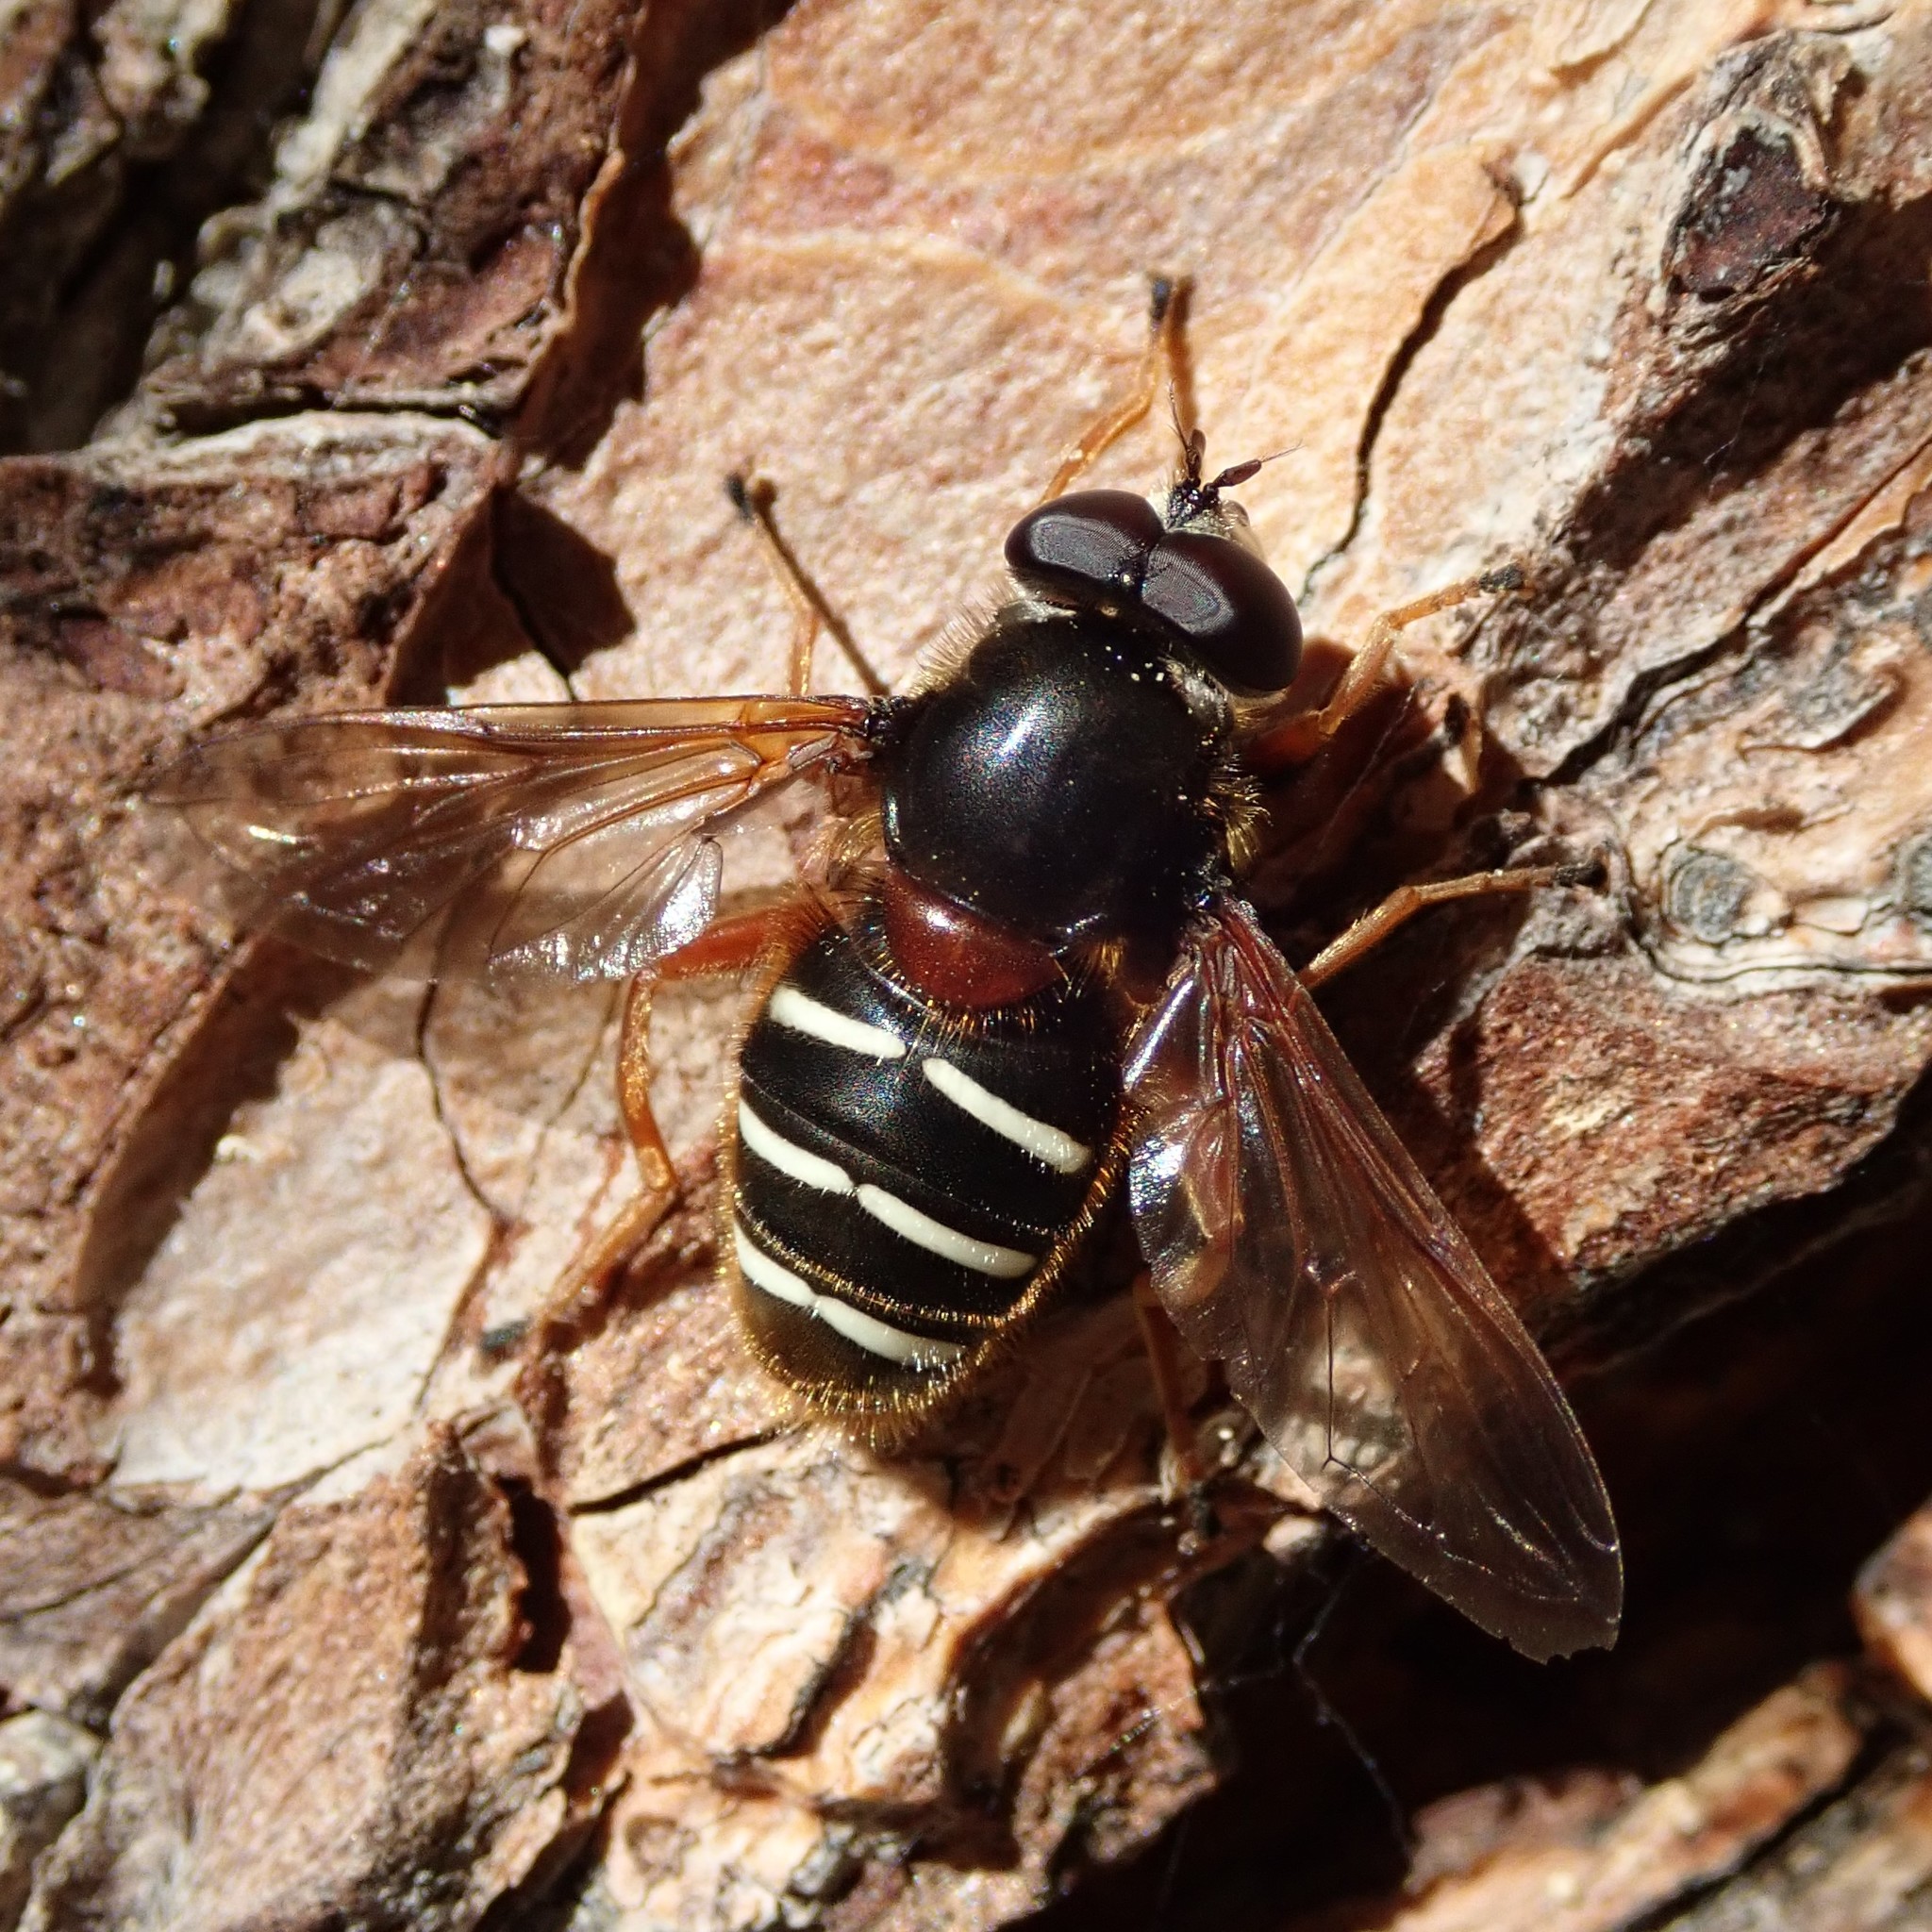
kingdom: Animalia
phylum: Arthropoda
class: Insecta
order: Diptera
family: Syrphidae
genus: Sericomyia
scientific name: Sericomyia lappona
